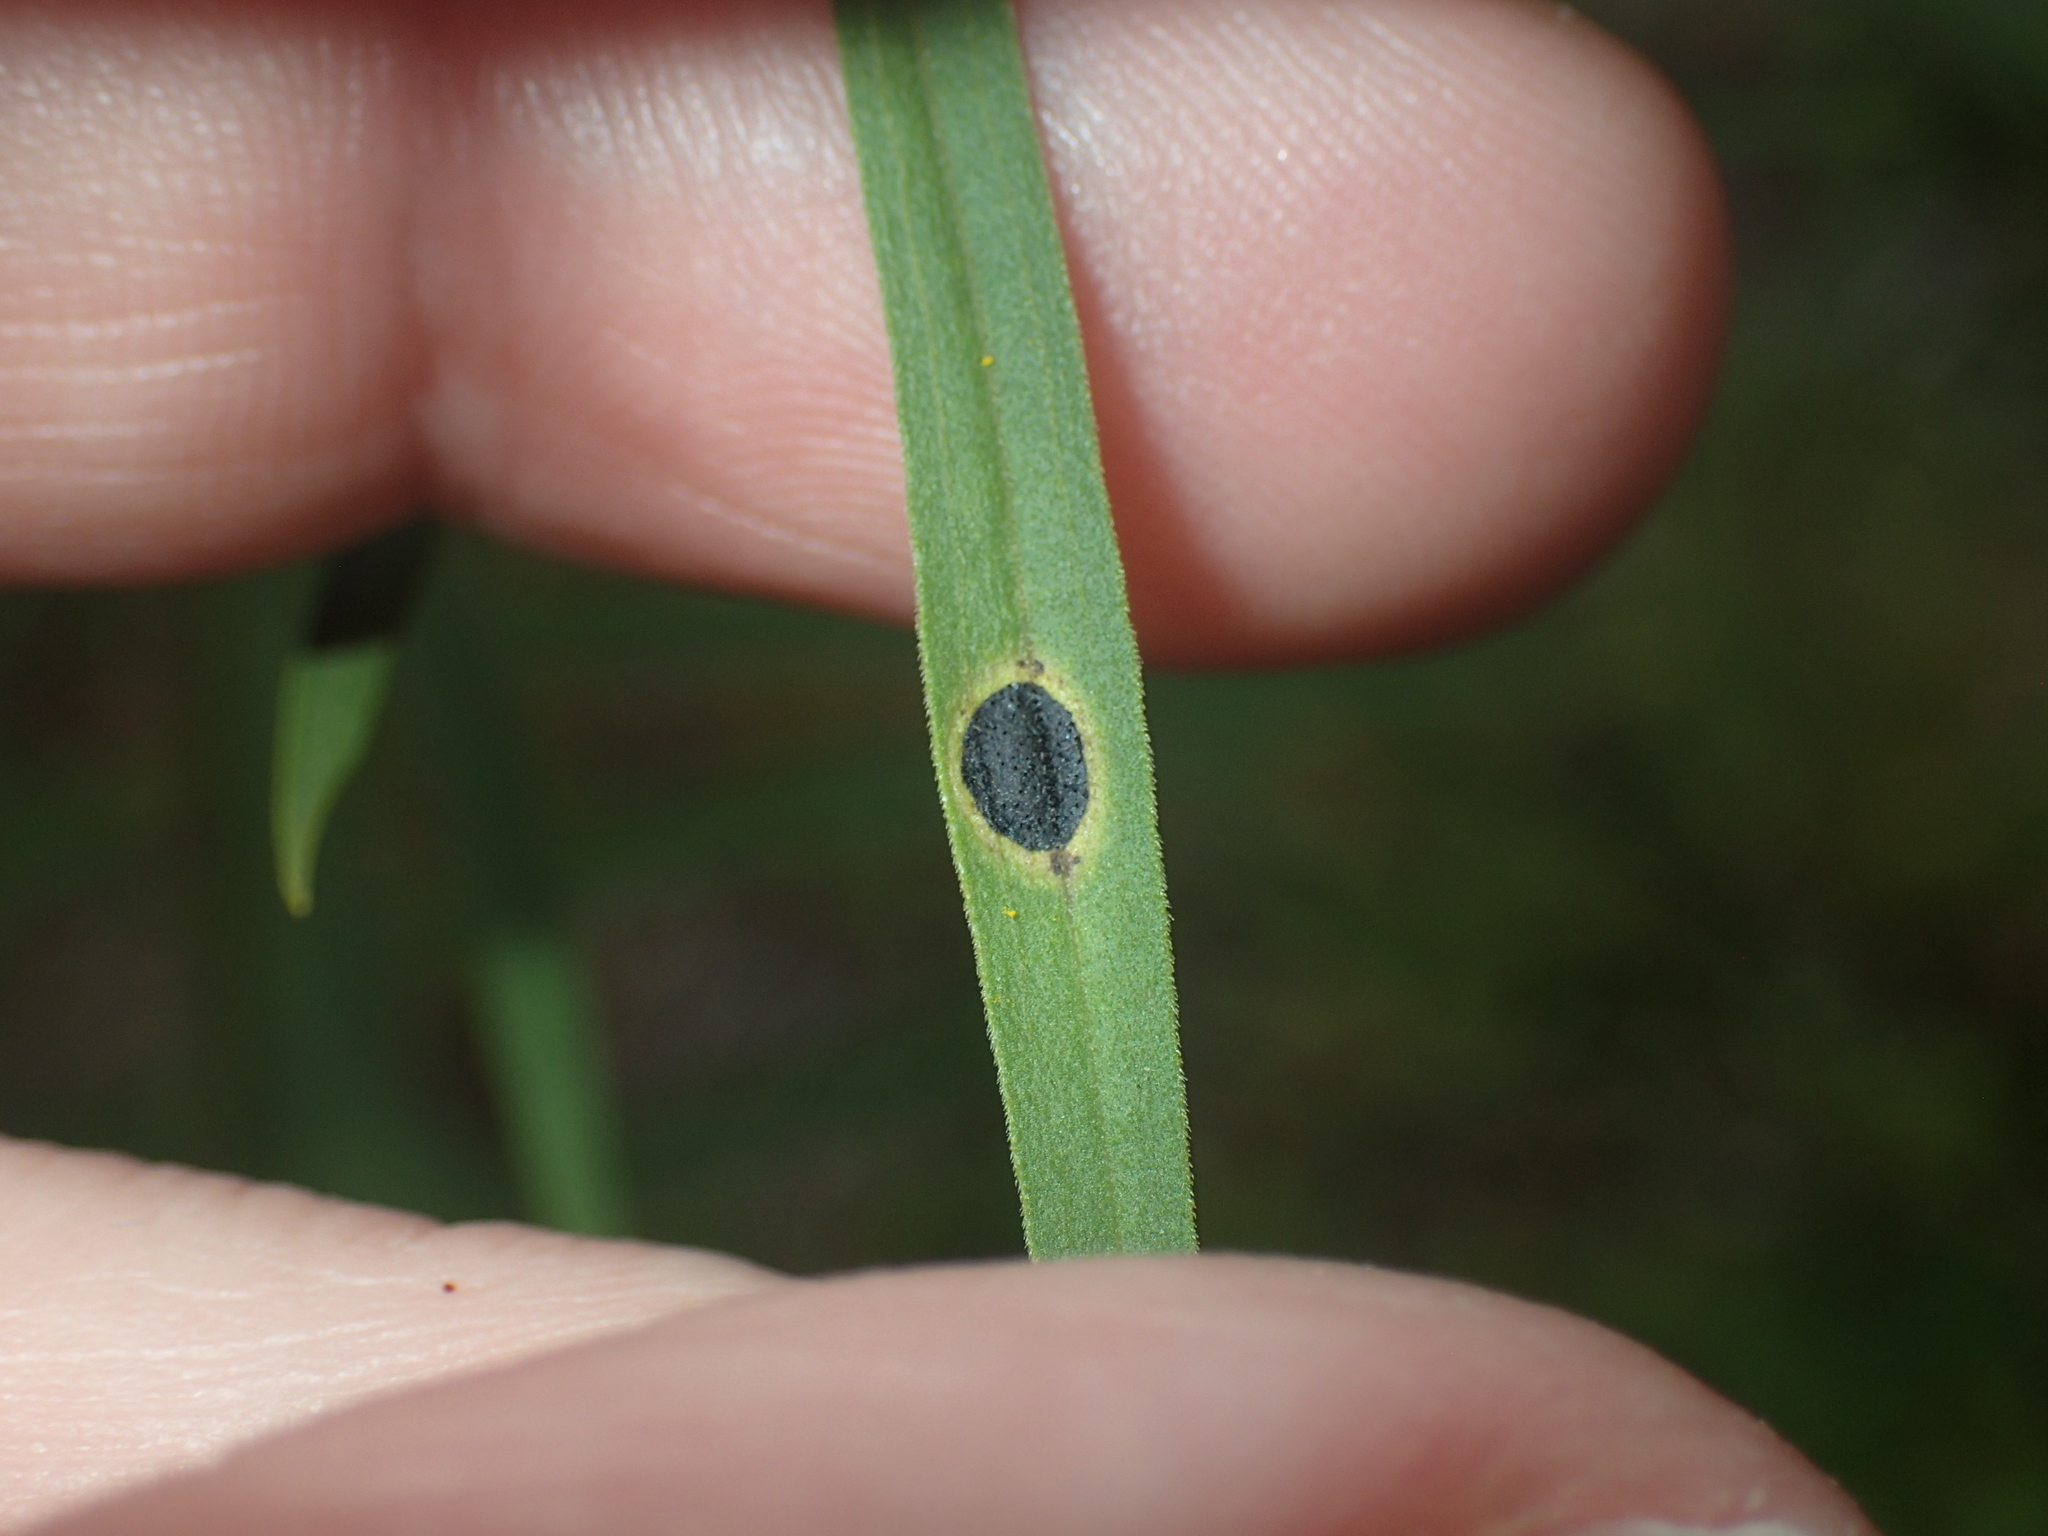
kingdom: Animalia
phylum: Arthropoda
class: Insecta
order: Diptera
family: Cecidomyiidae
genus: Asteromyia
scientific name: Asteromyia euthamiae
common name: Euthamia leaf gall midge
